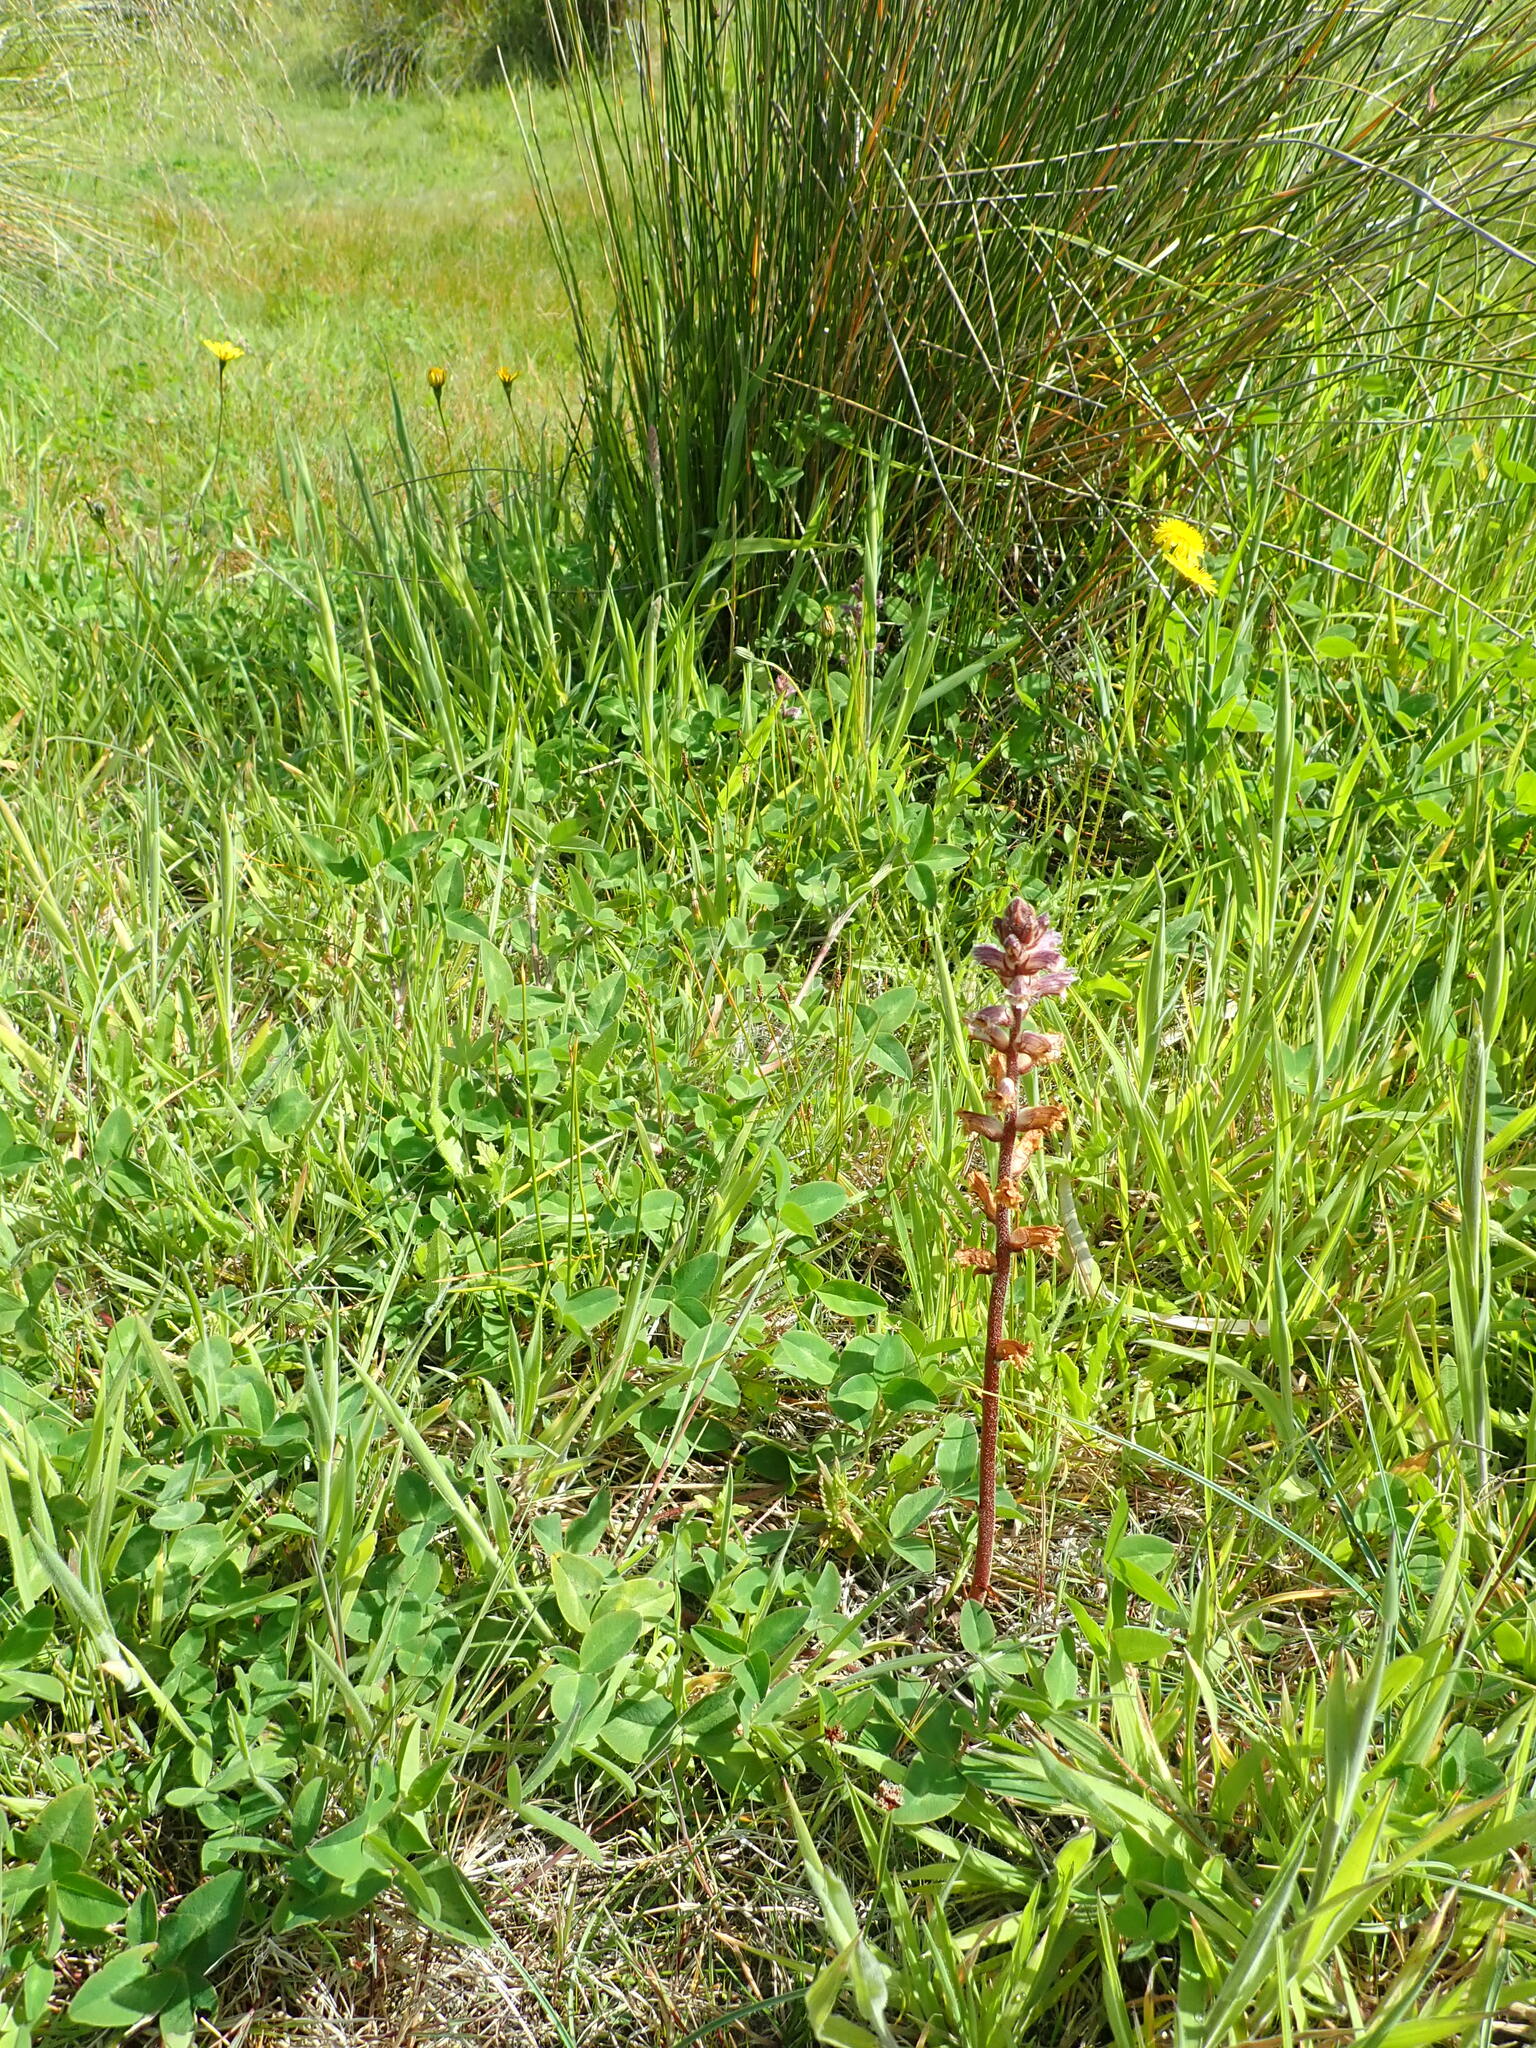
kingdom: Plantae
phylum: Tracheophyta
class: Magnoliopsida
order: Lamiales
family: Orobanchaceae
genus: Orobanche
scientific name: Orobanche minor
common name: Common broomrape
